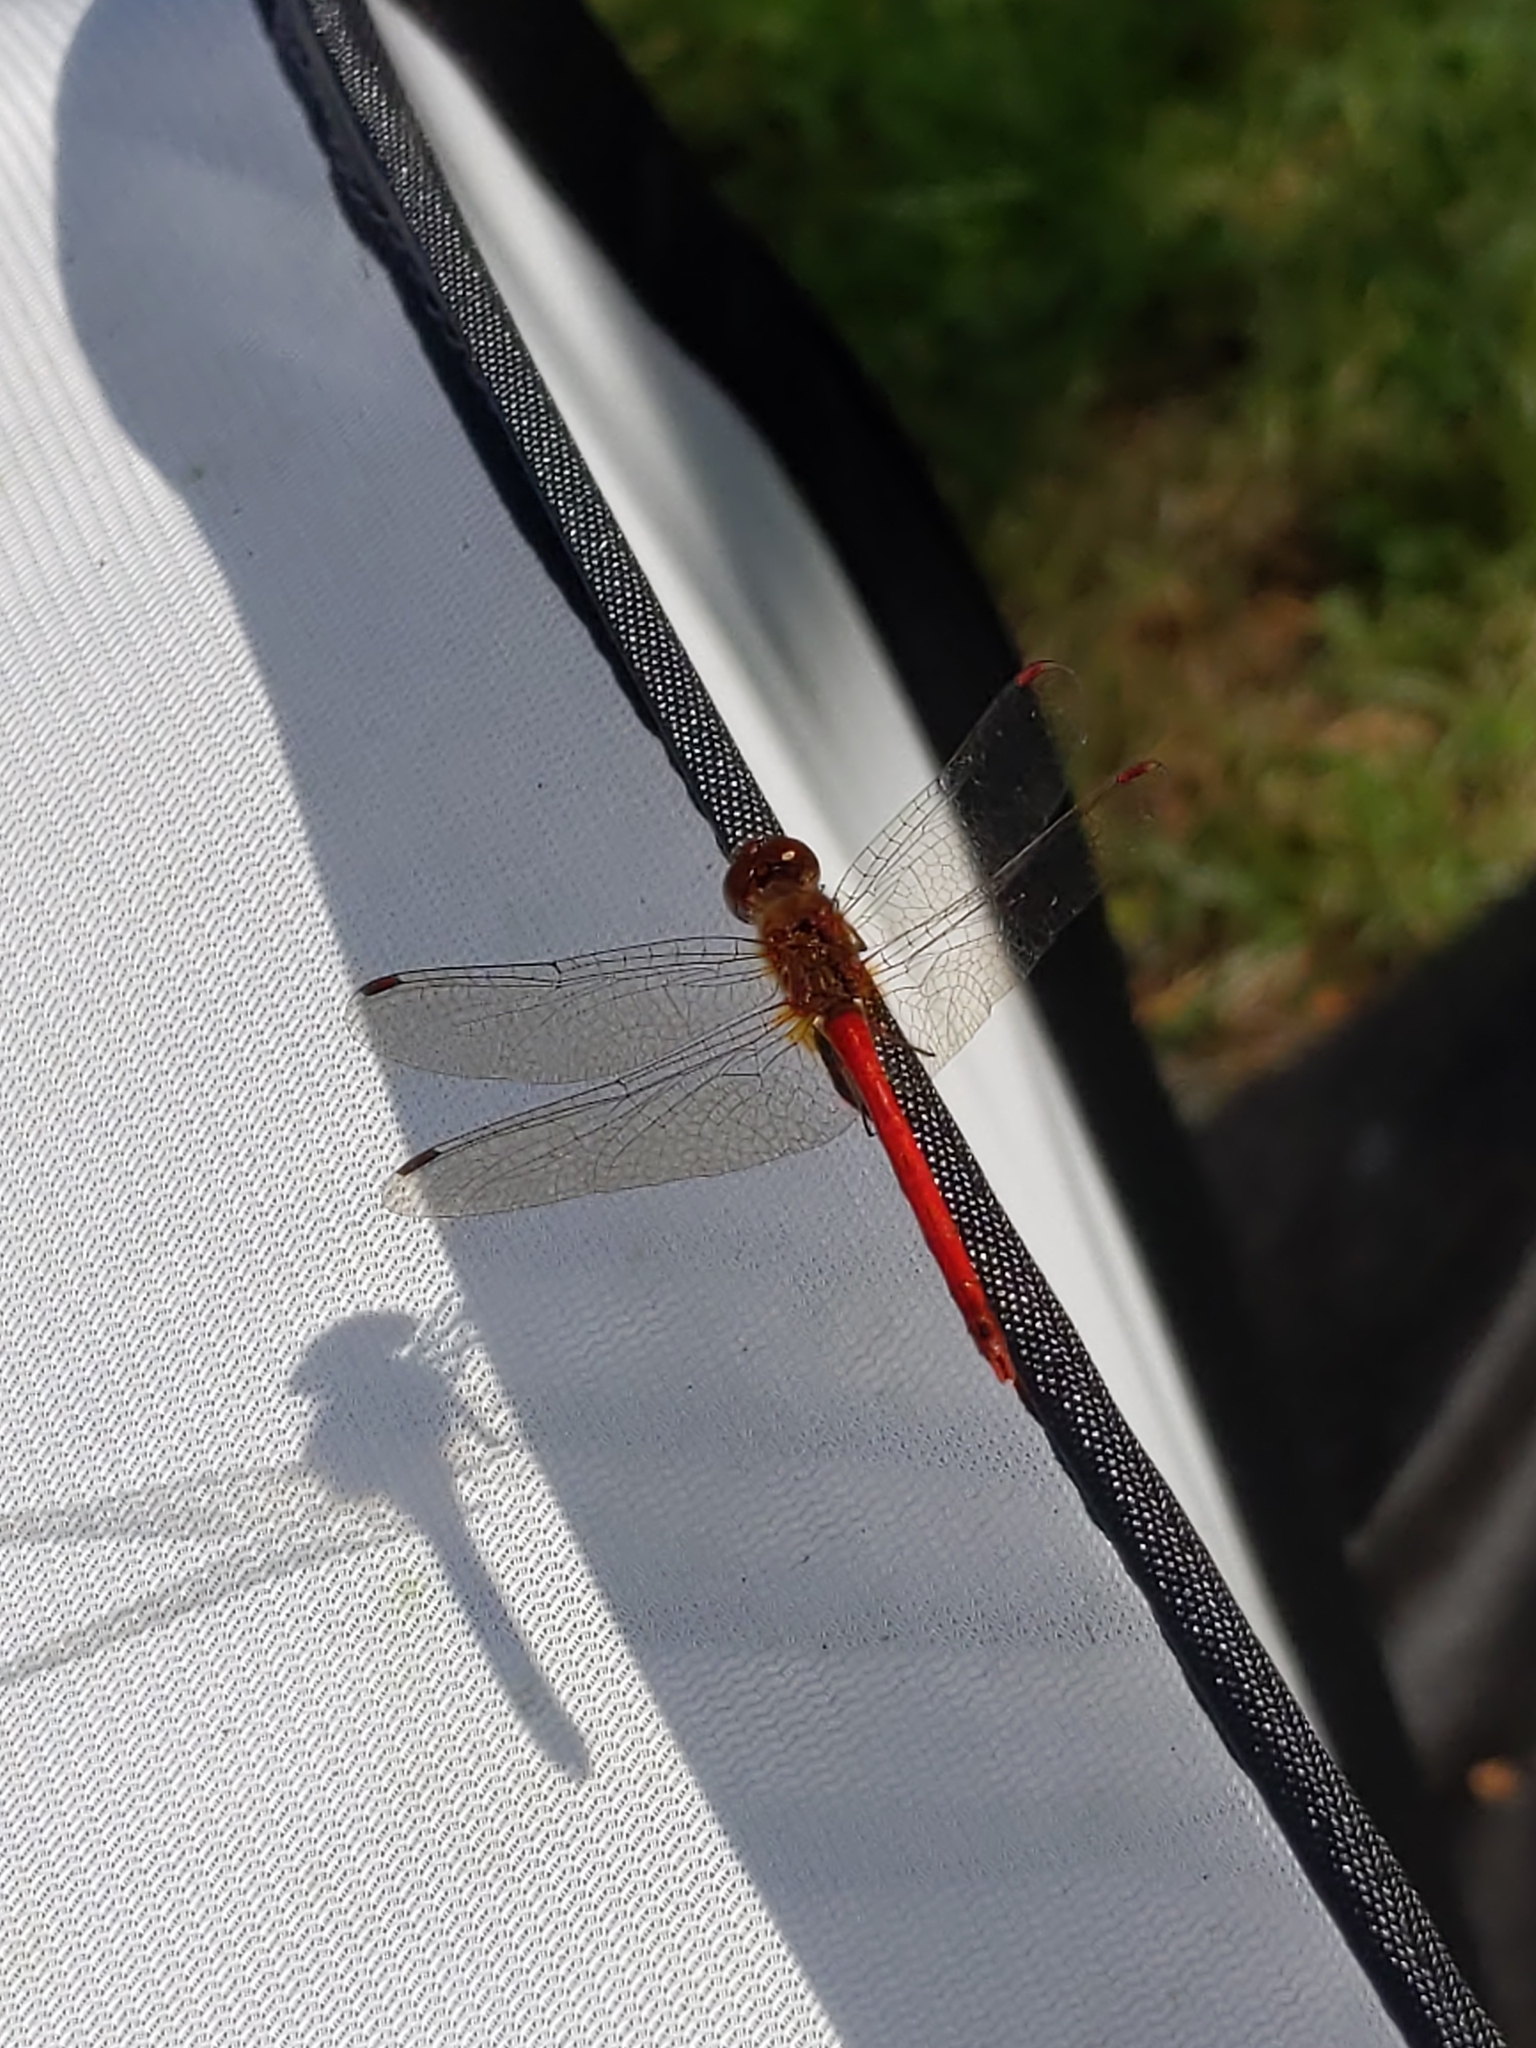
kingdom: Animalia
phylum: Arthropoda
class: Insecta
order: Odonata
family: Libellulidae
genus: Sympetrum
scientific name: Sympetrum vicinum
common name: Autumn meadowhawk
